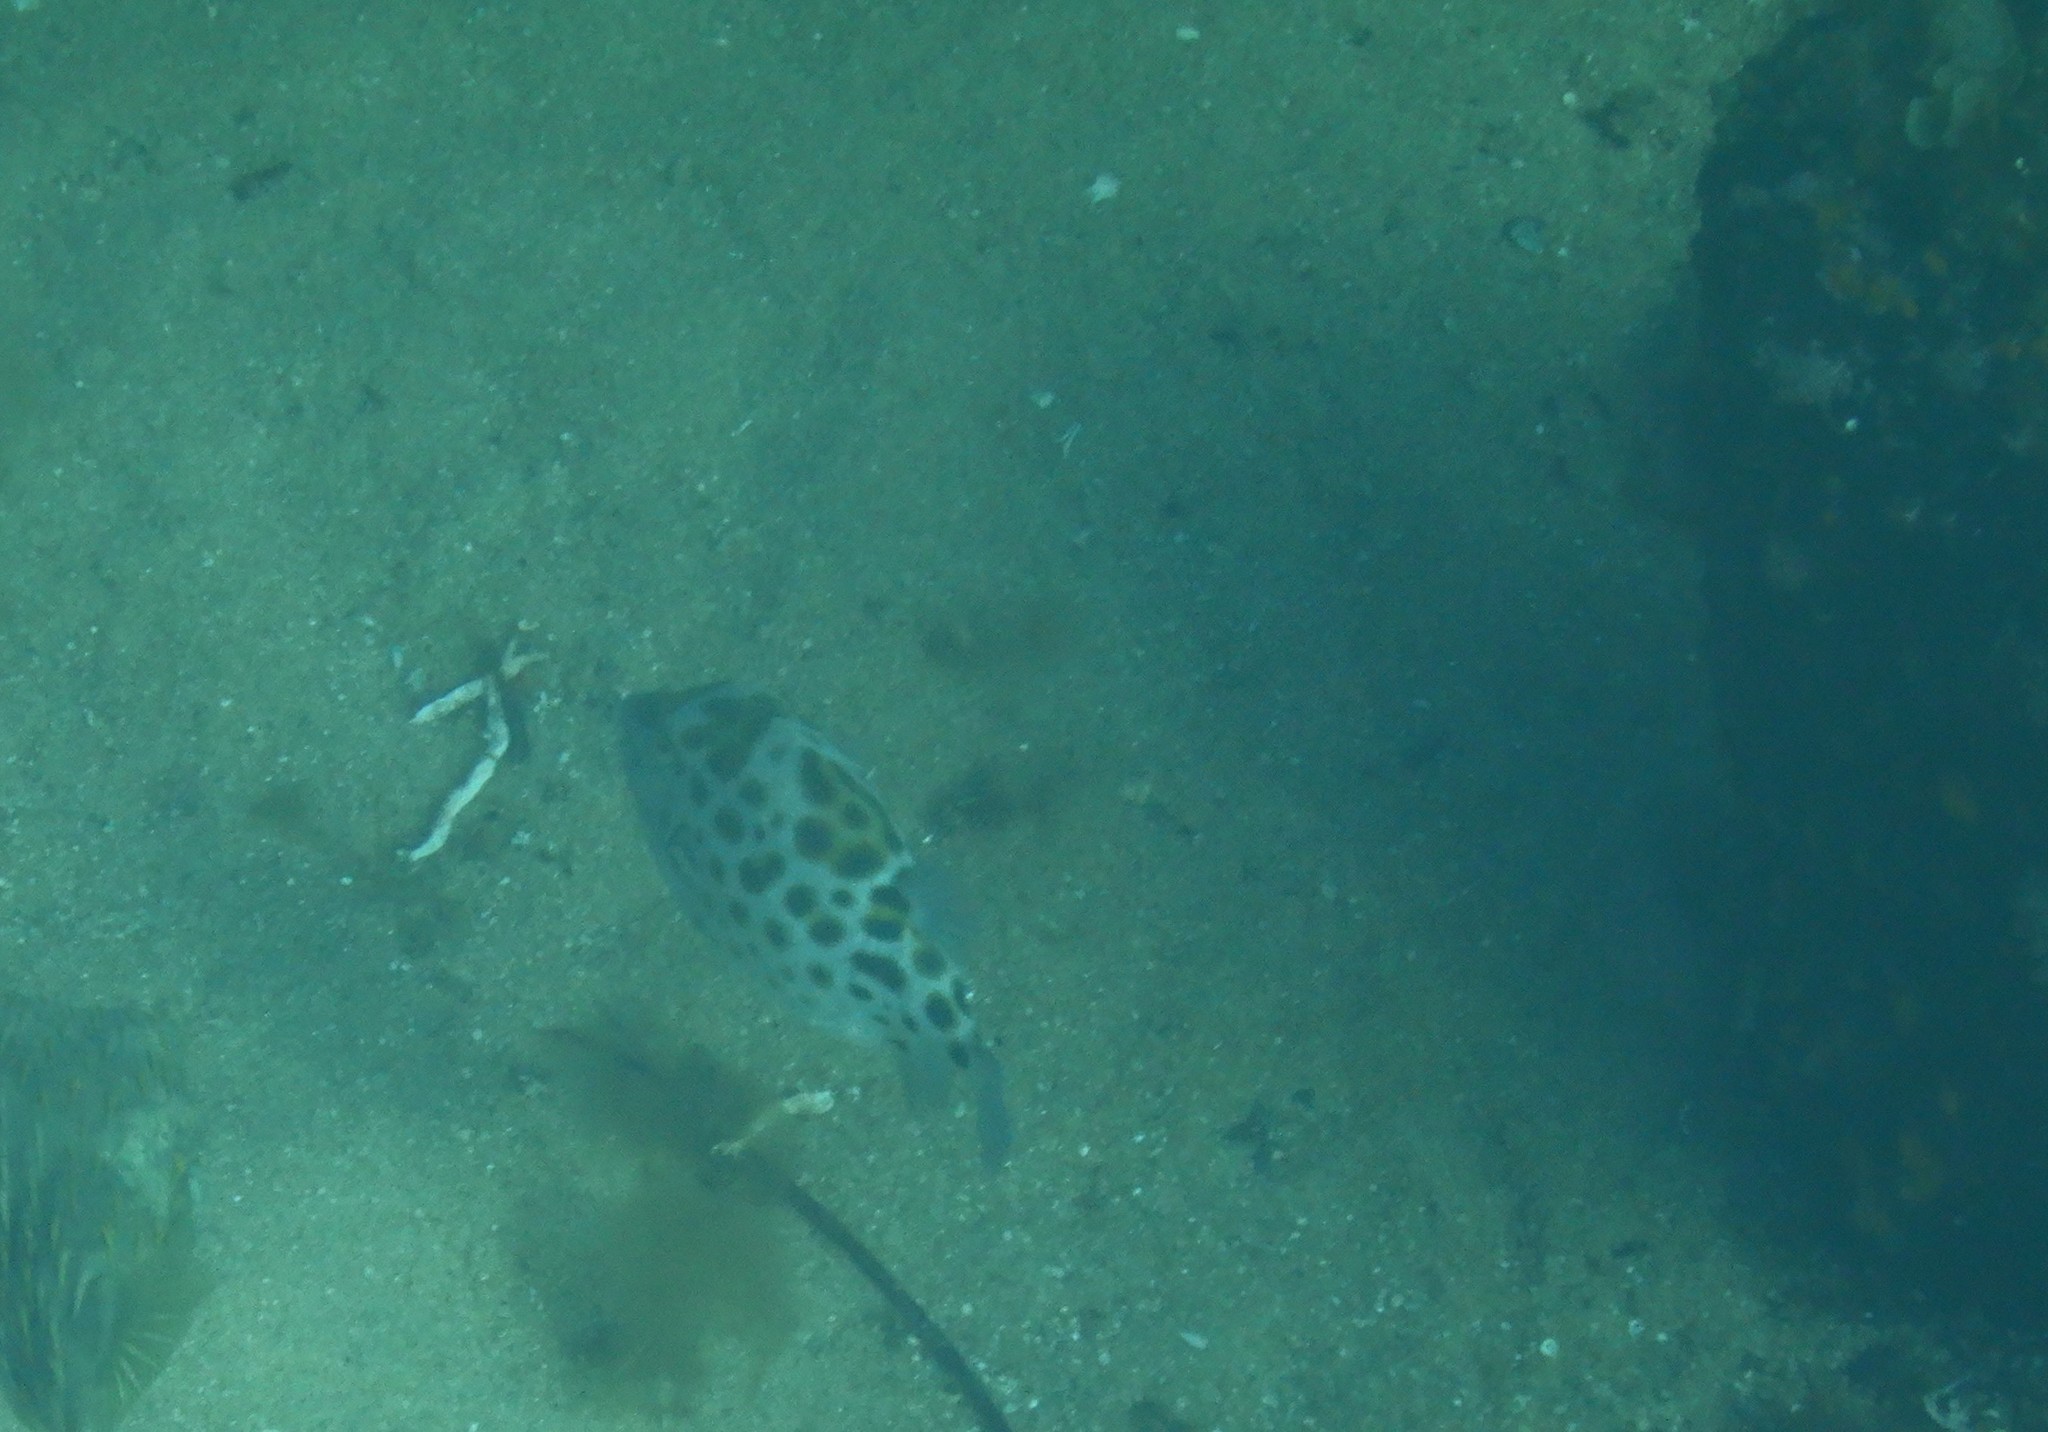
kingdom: Animalia
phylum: Chordata
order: Tetraodontiformes
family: Aracanidae
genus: Anoplocapros
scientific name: Anoplocapros amygdaloides
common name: Blue boxfish
